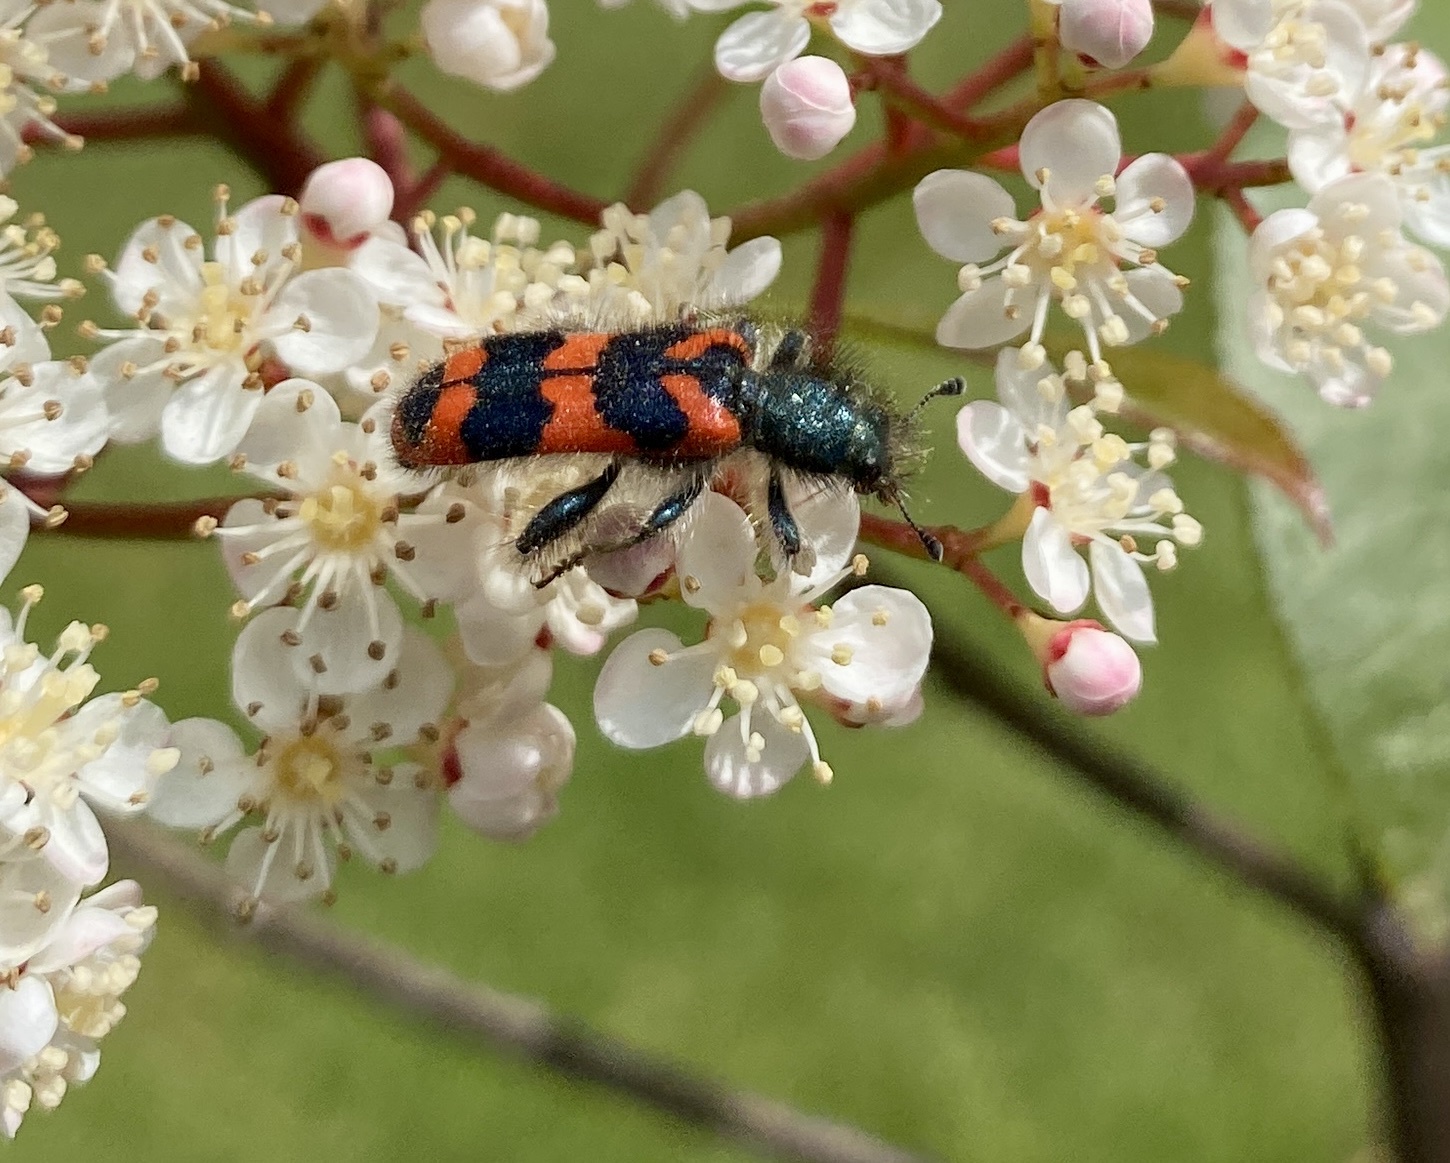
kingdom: Animalia
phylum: Arthropoda
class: Insecta
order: Coleoptera
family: Cleridae
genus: Trichodes
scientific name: Trichodes alvearius
